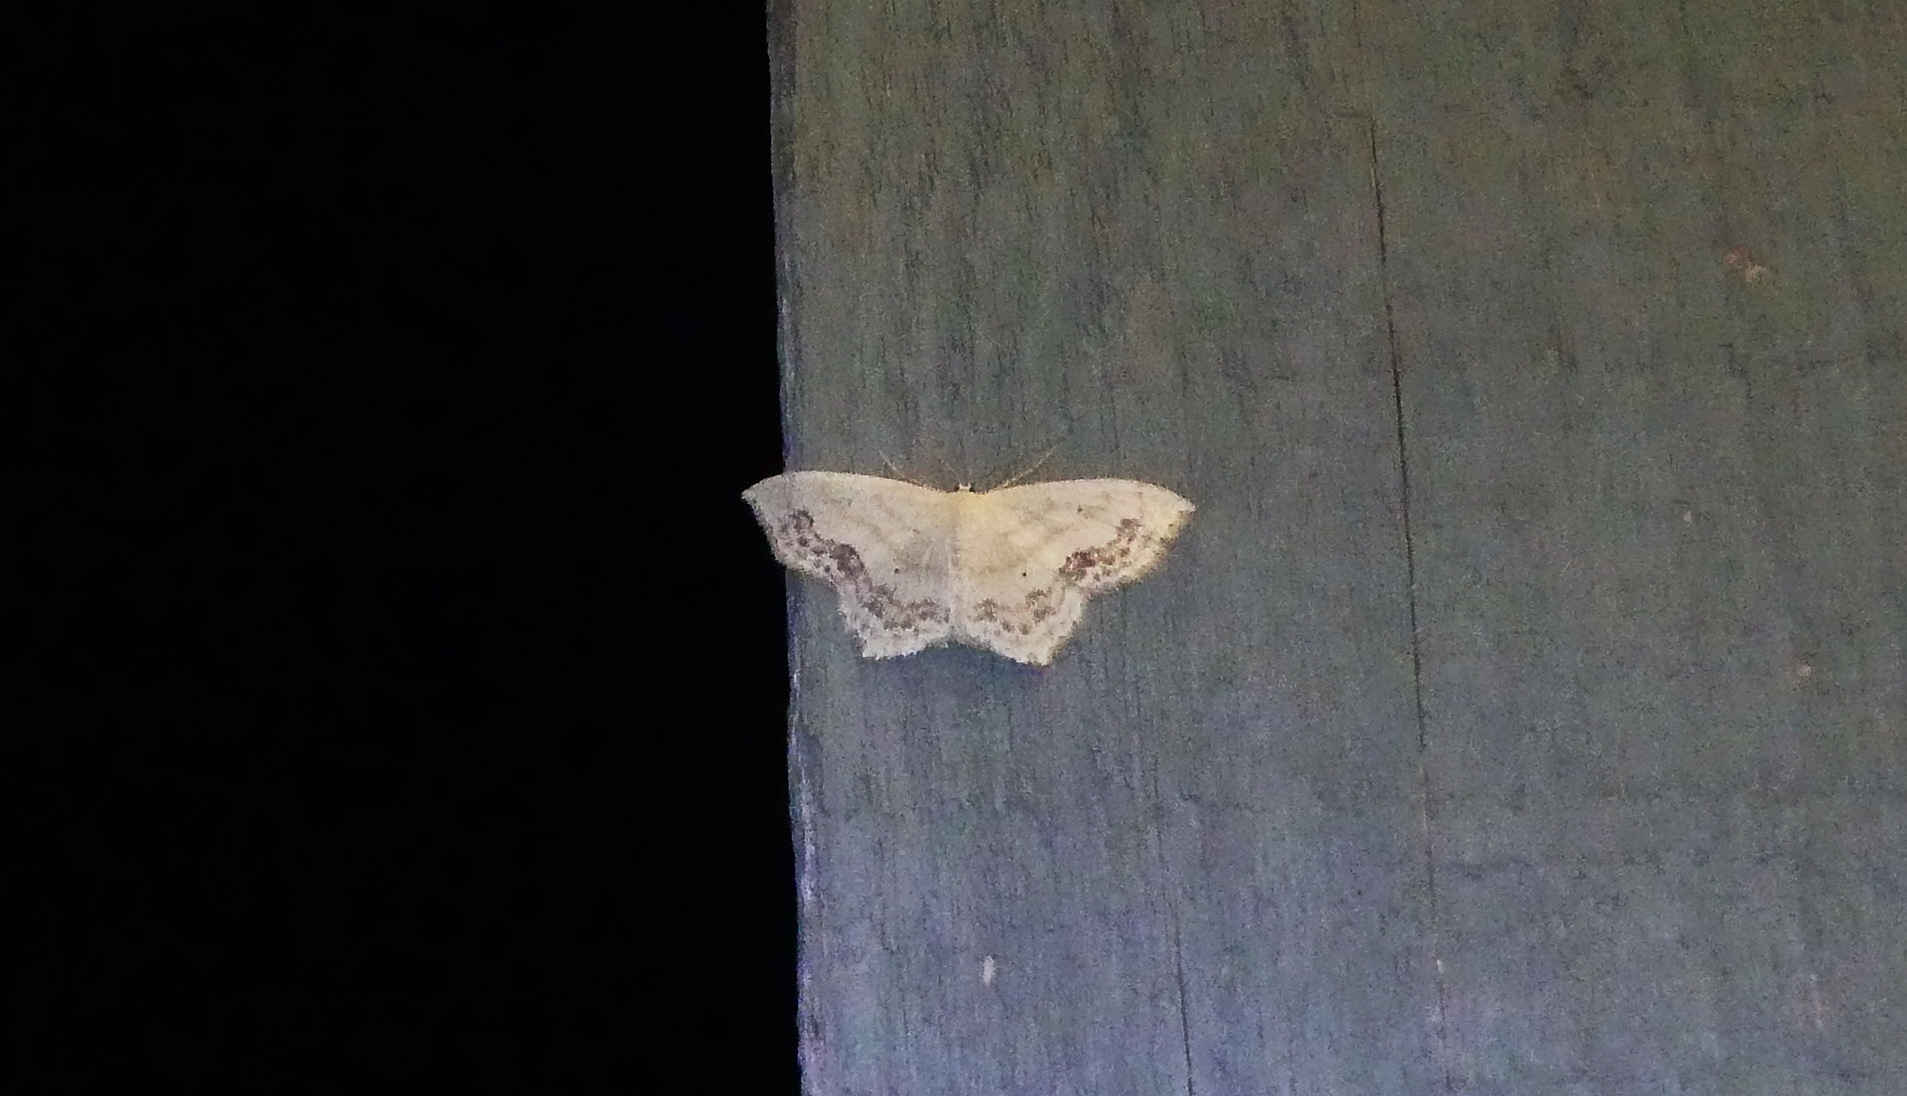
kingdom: Animalia
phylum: Arthropoda
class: Insecta
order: Lepidoptera
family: Geometridae
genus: Scopula
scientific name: Scopula limboundata
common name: Large lace border
